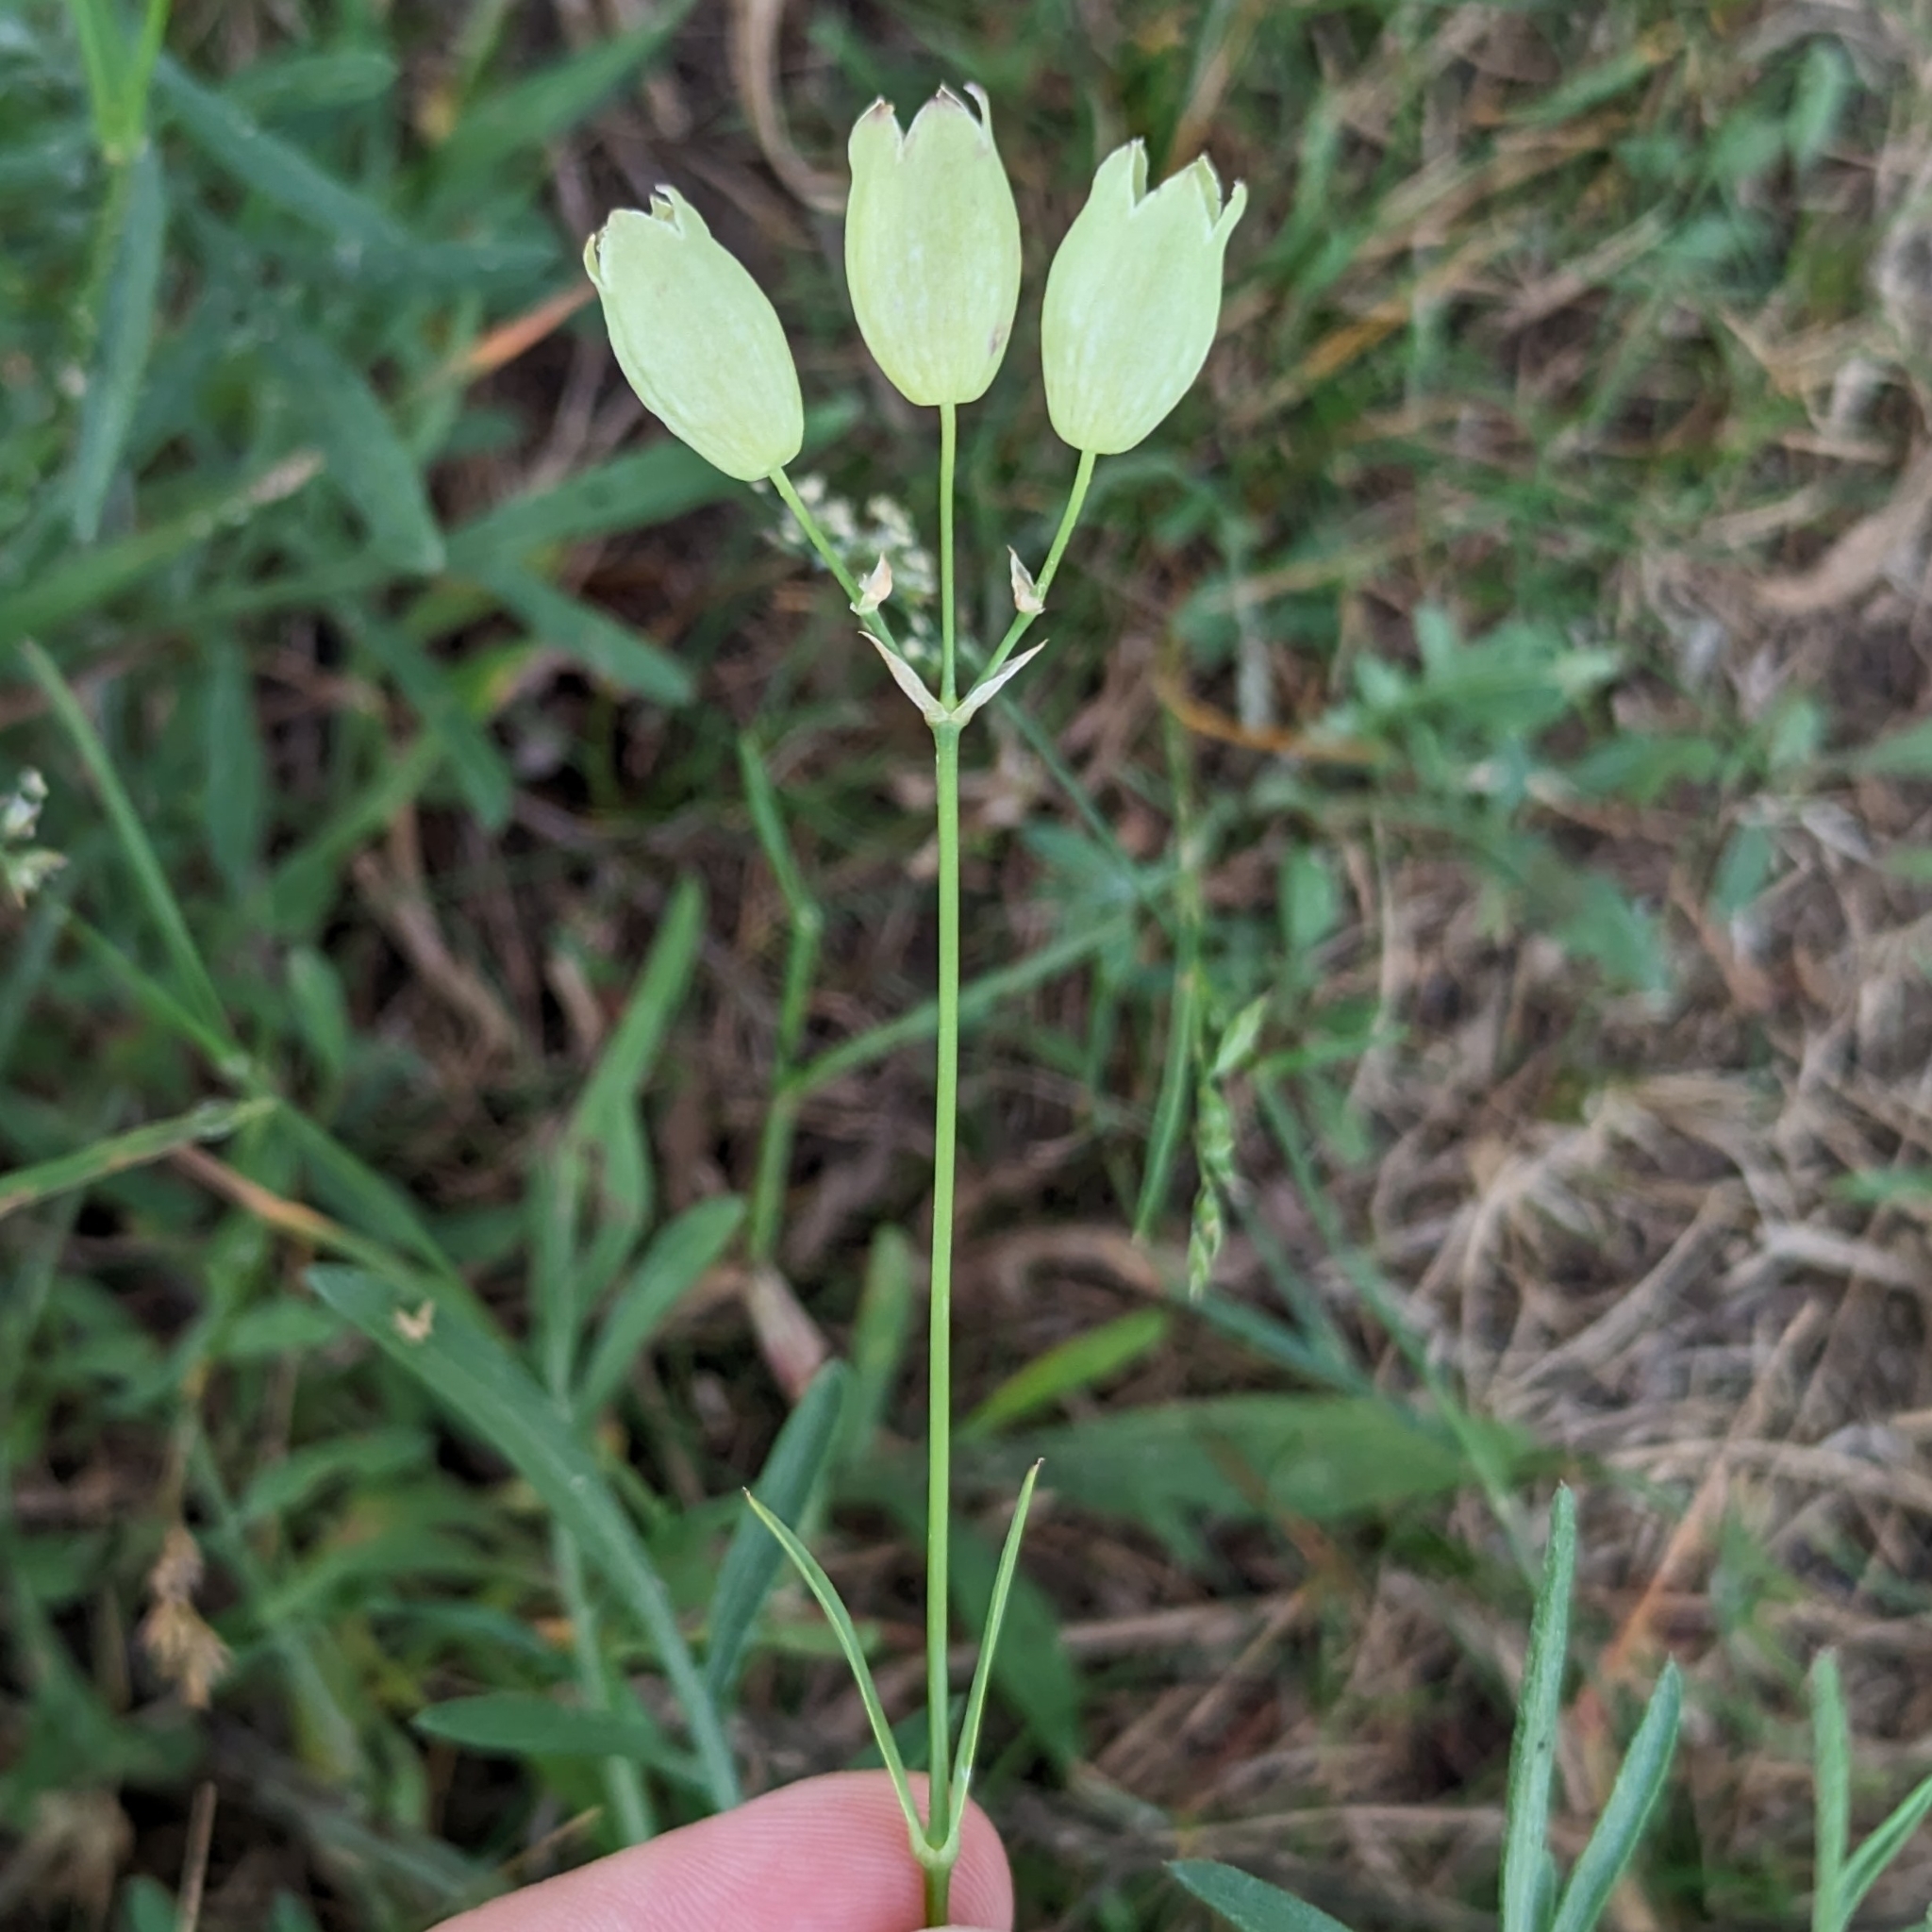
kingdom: Plantae
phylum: Tracheophyta
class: Magnoliopsida
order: Caryophyllales
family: Caryophyllaceae
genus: Silene
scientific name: Silene vulgaris
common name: Bladder campion
